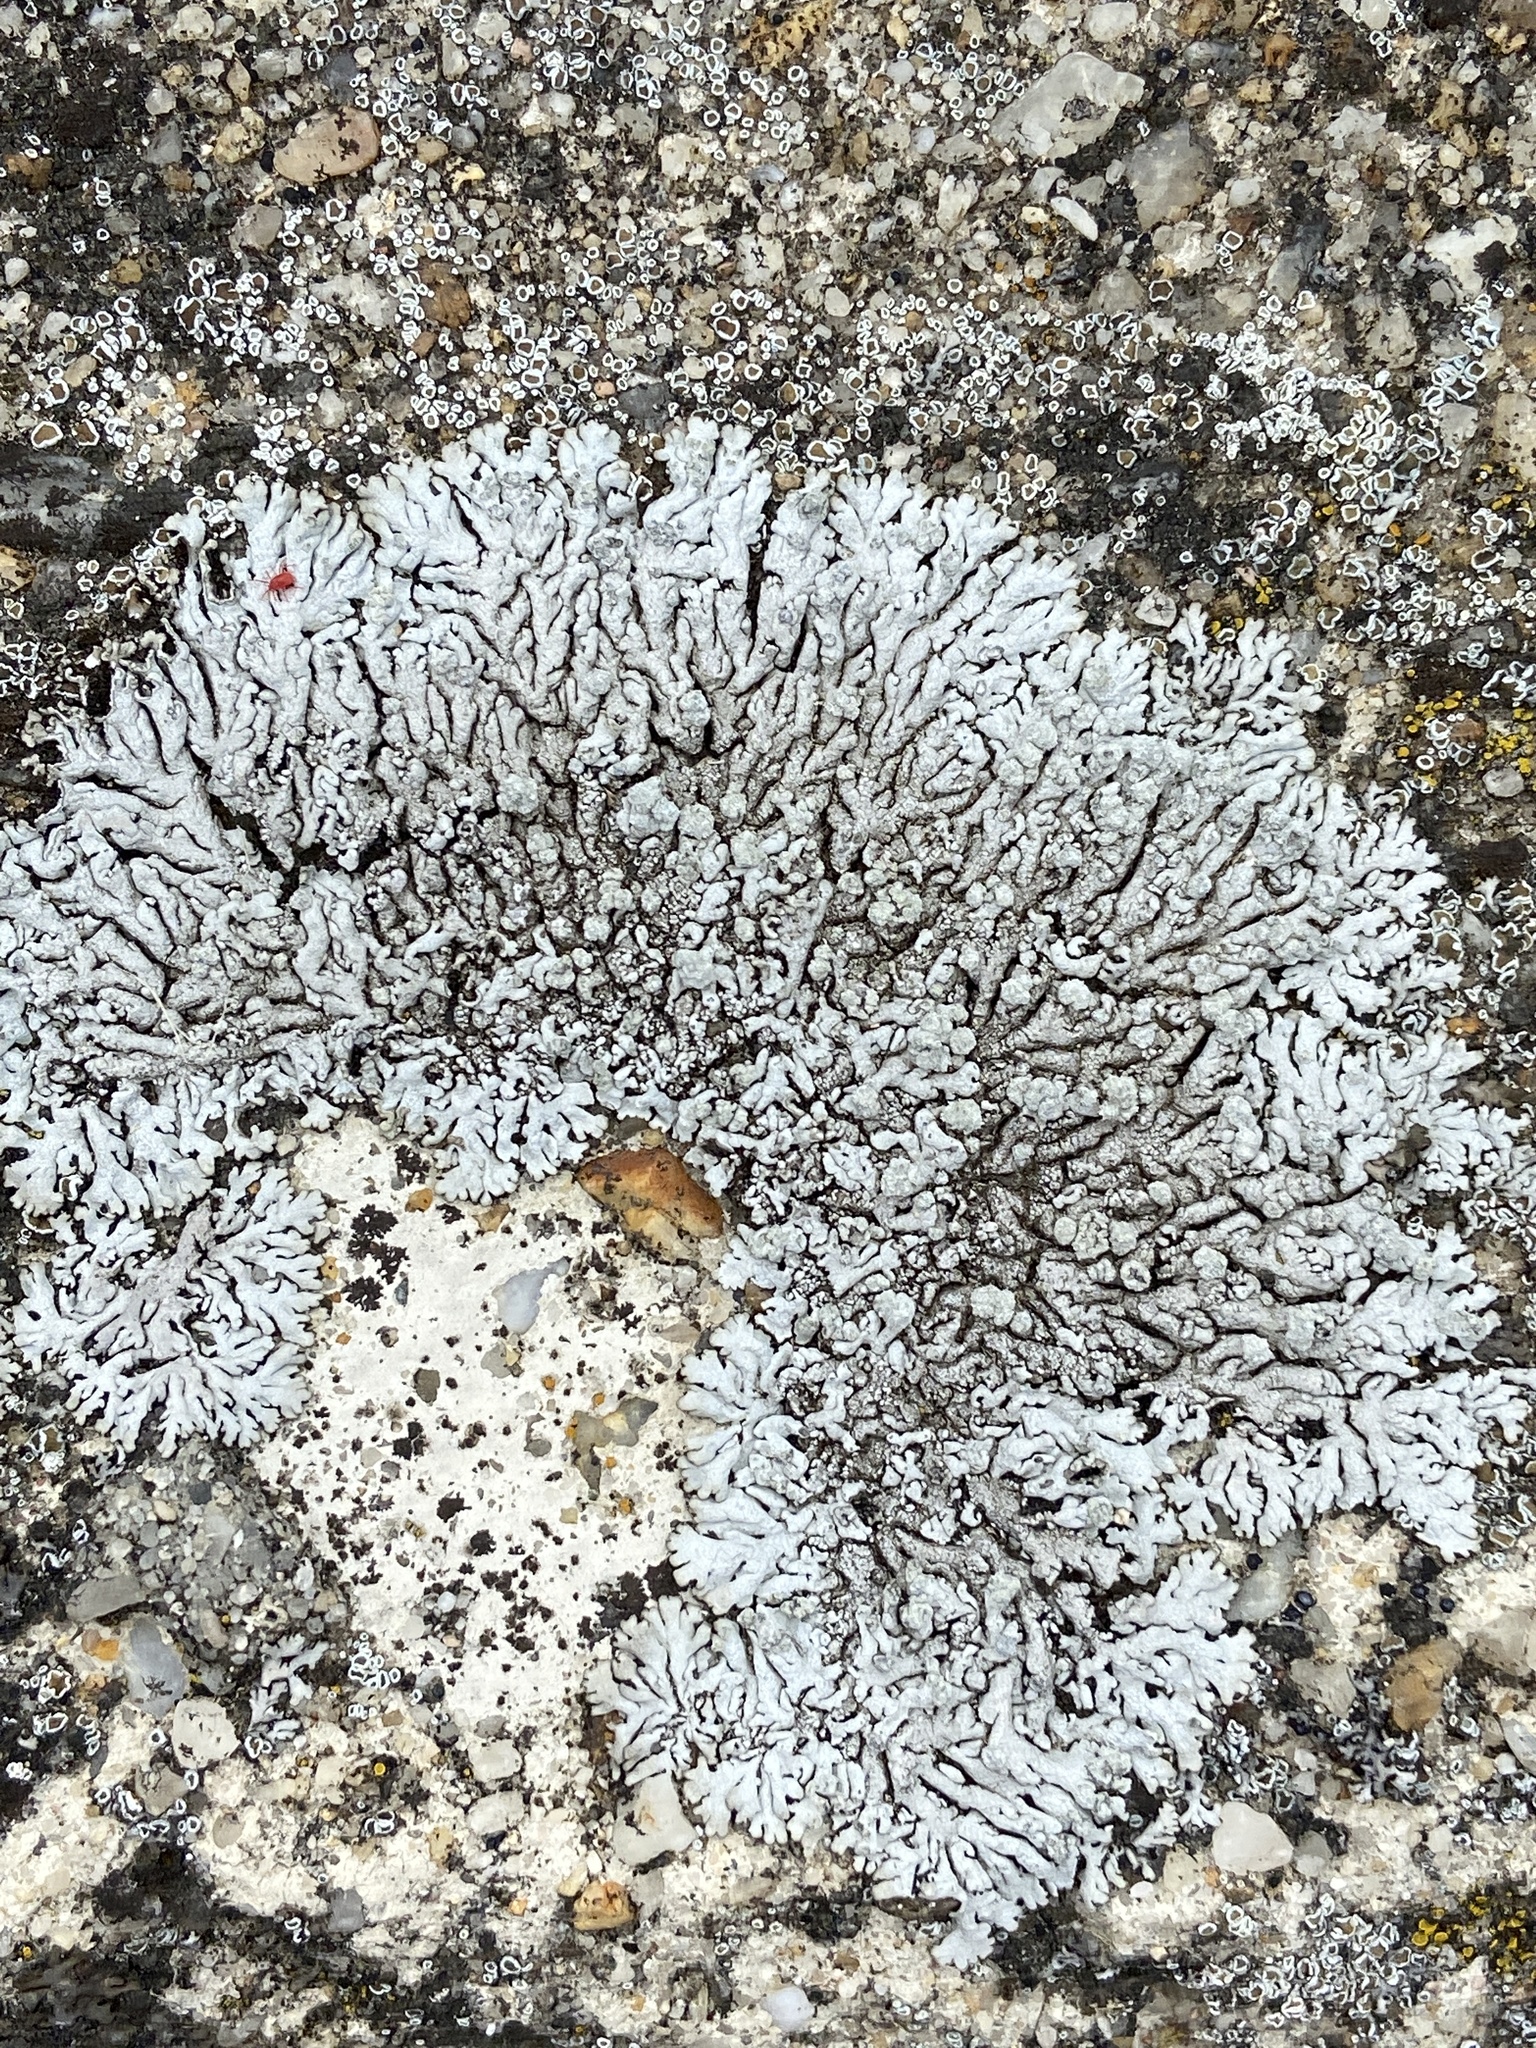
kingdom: Fungi
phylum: Ascomycota
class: Lecanoromycetes
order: Caliciales
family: Physciaceae
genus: Physcia
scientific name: Physcia caesia
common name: Blue-gray rosette lichen
